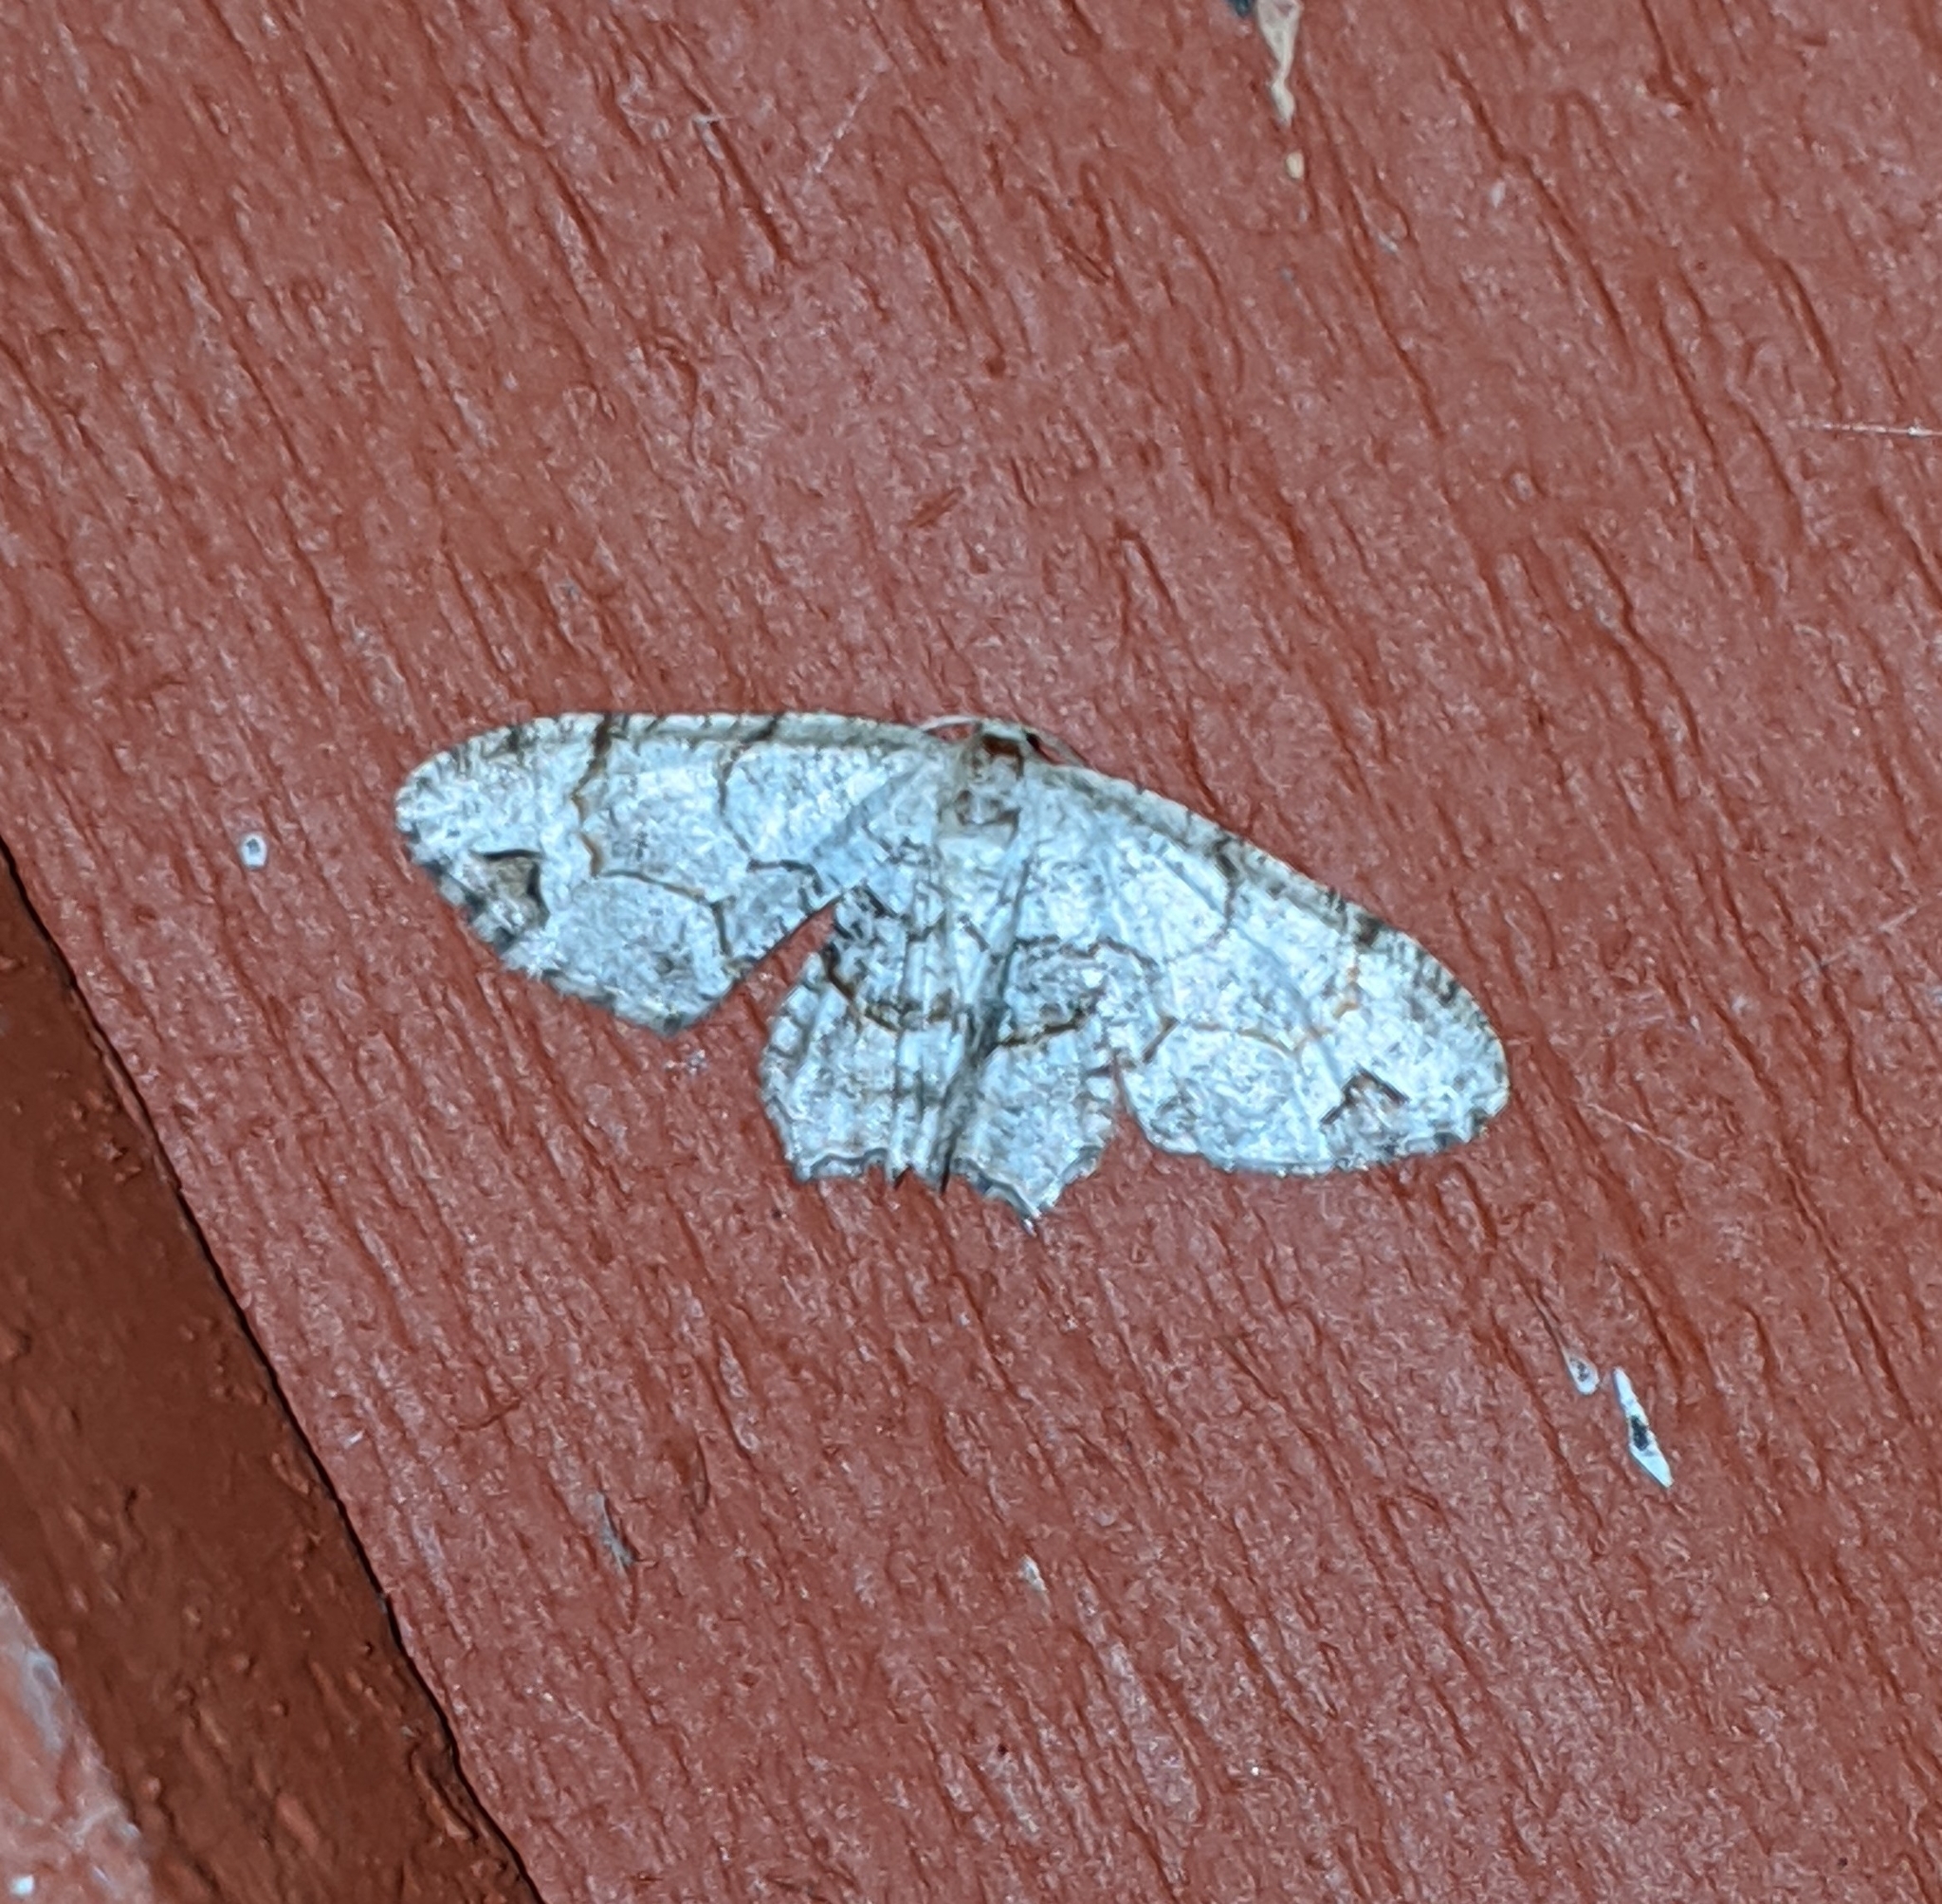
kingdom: Animalia
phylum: Arthropoda
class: Insecta
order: Lepidoptera
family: Uraniidae
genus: Epiplema
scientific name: Epiplema Callizzia amorata
